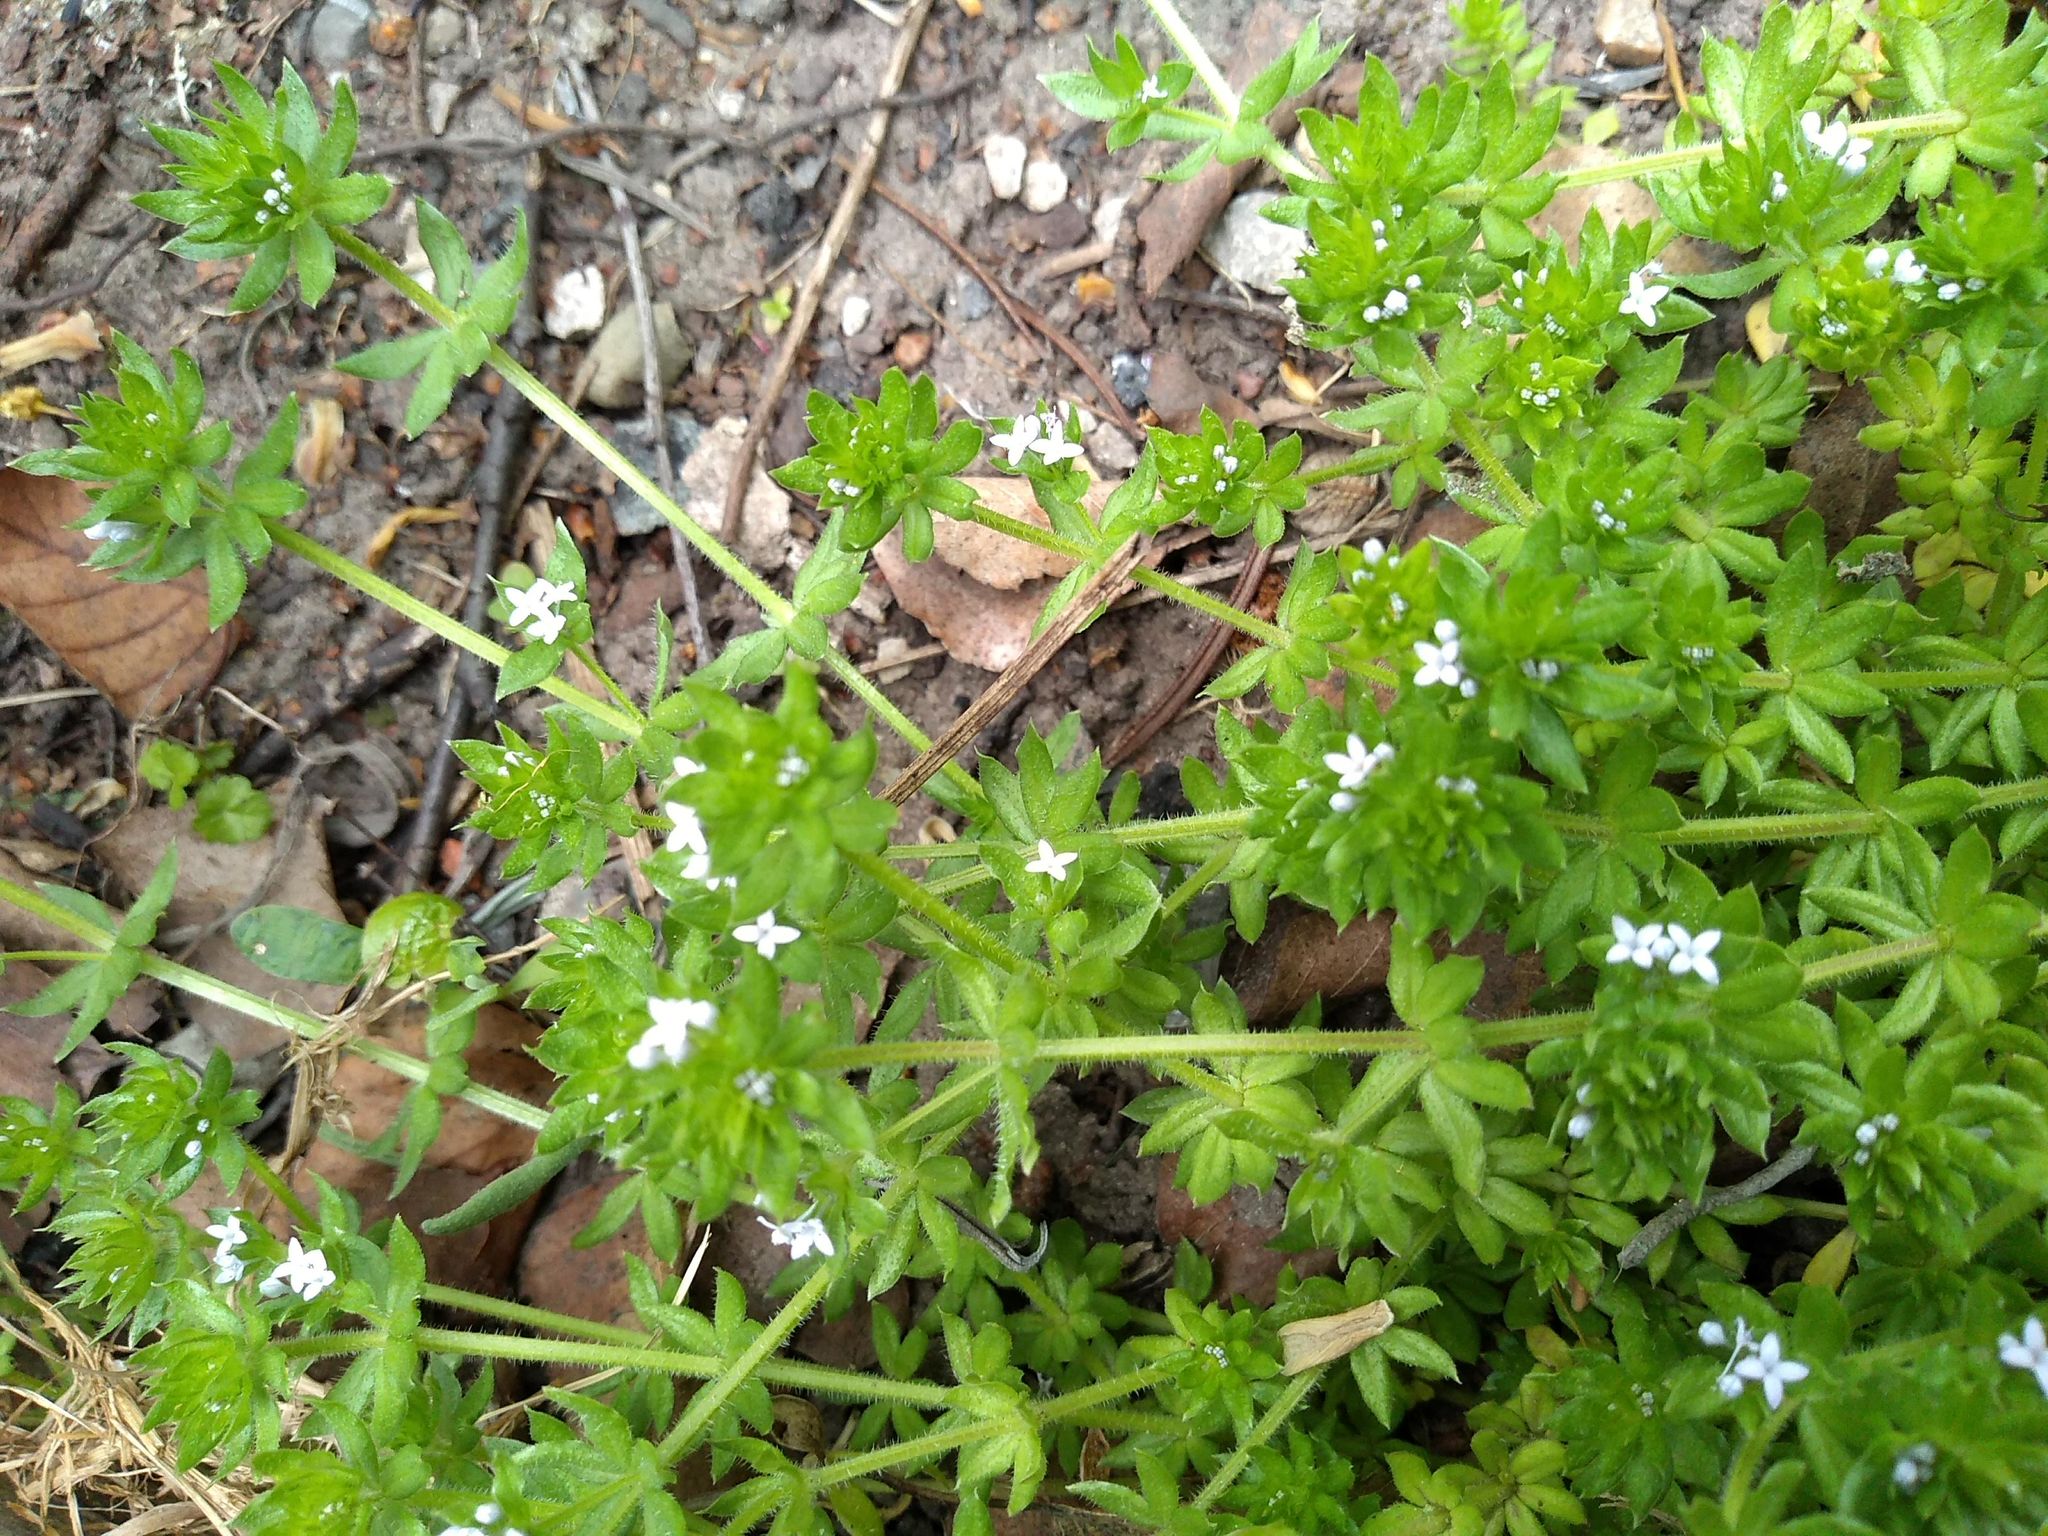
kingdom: Plantae
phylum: Tracheophyta
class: Magnoliopsida
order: Gentianales
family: Rubiaceae
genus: Sherardia
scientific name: Sherardia arvensis
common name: Field madder
